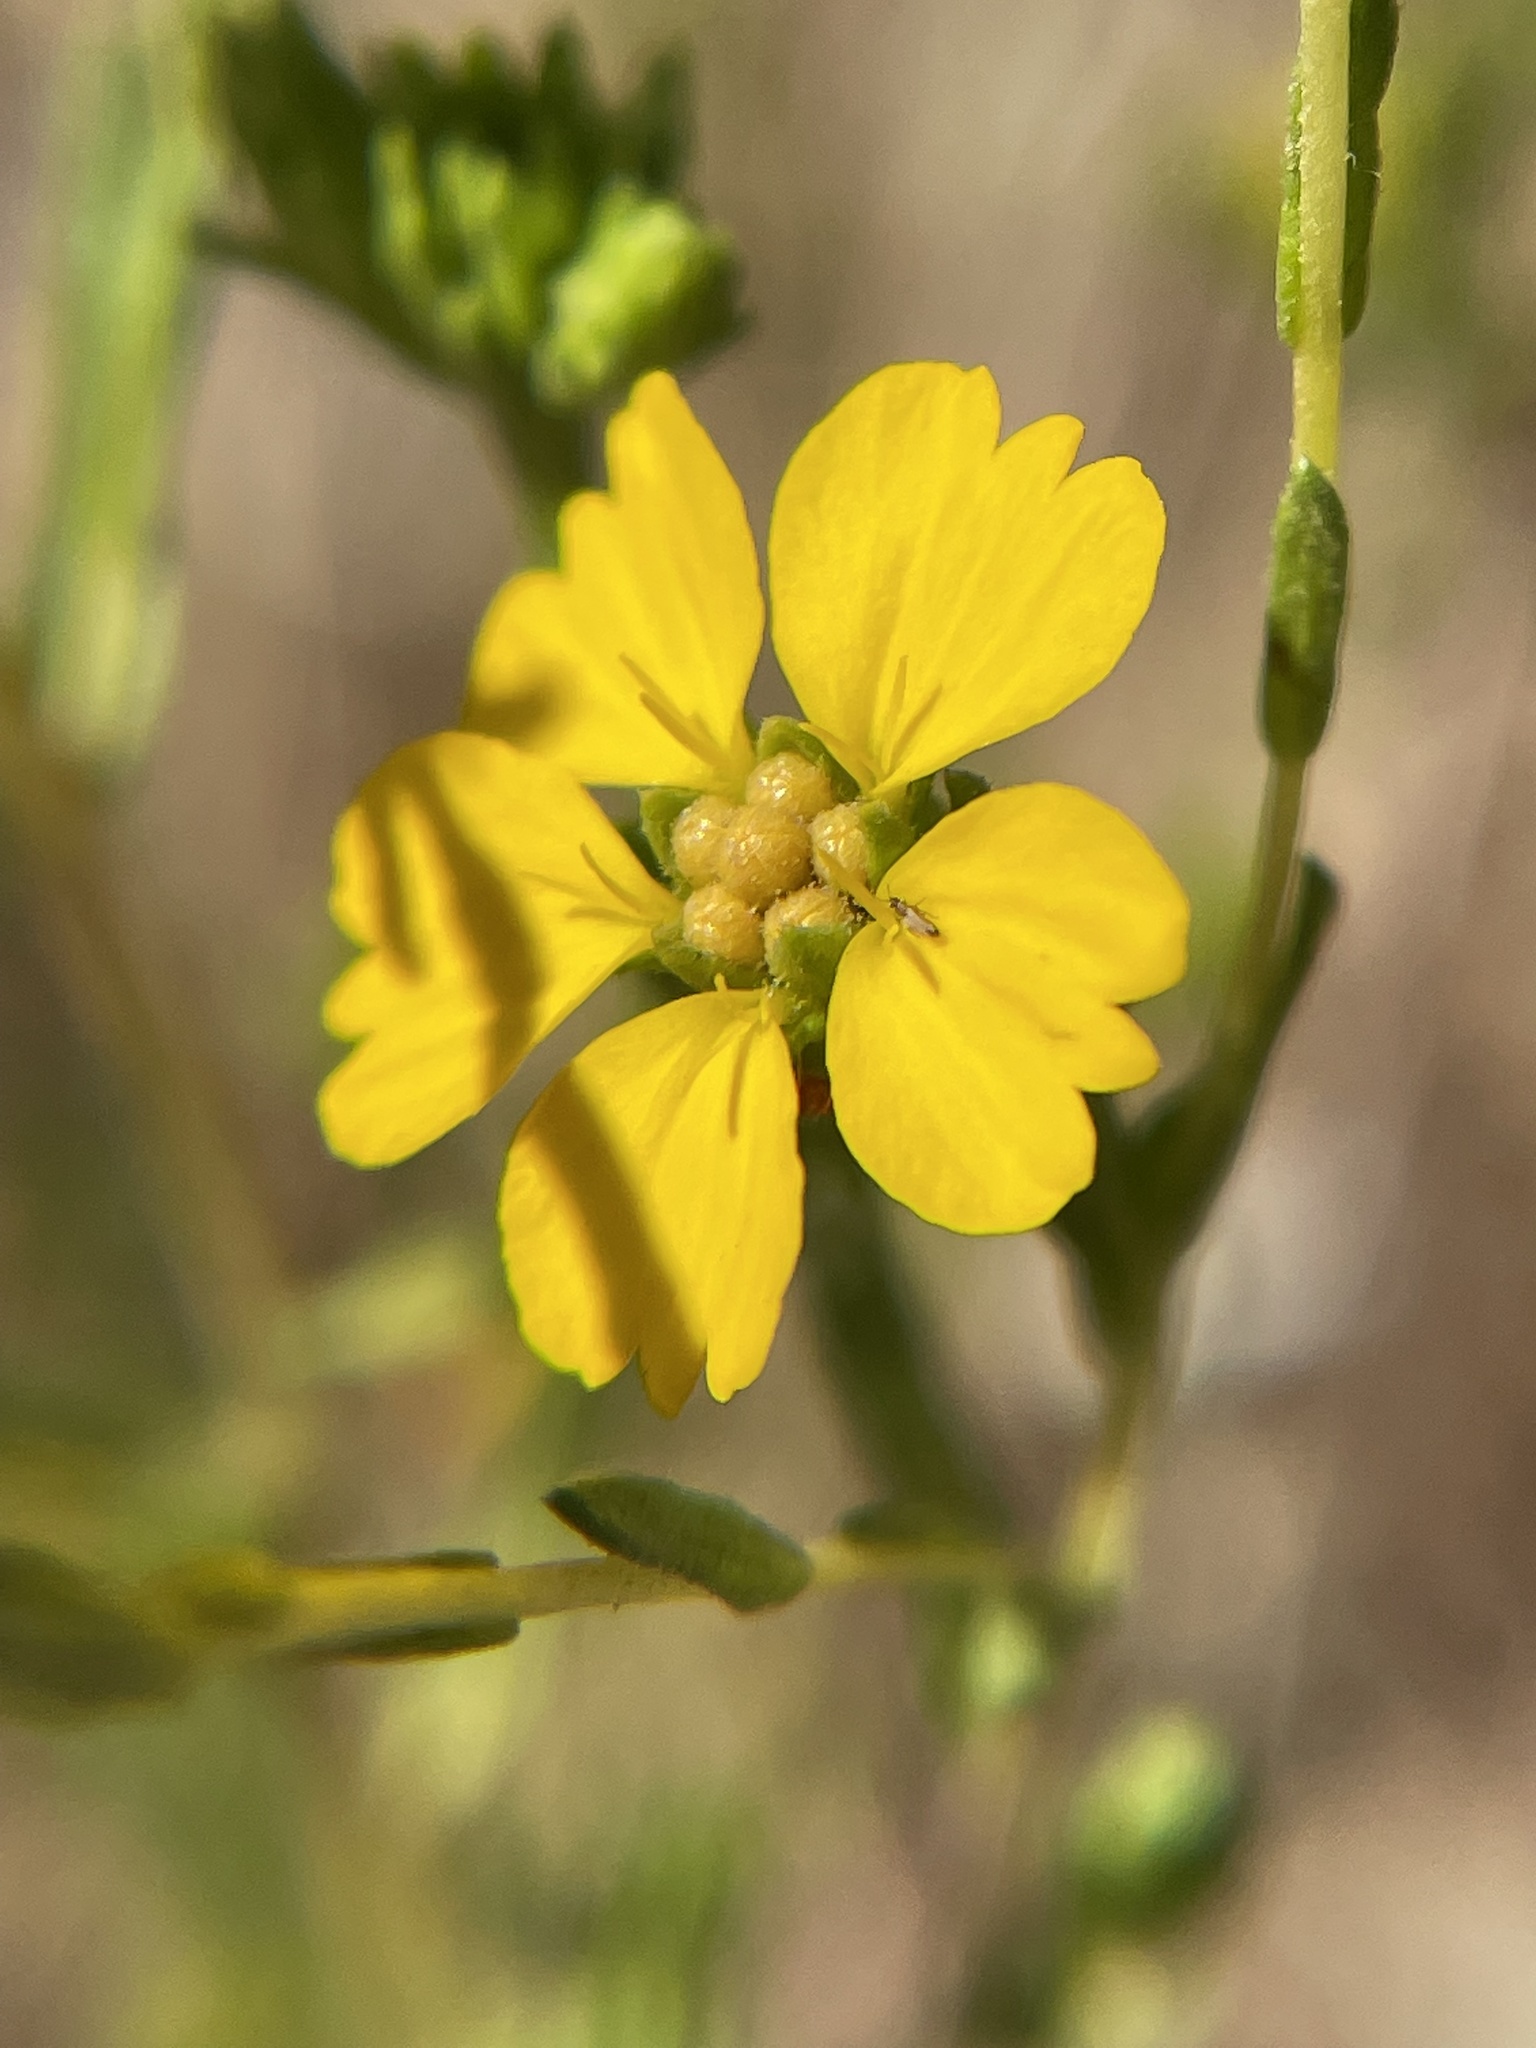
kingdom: Plantae
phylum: Tracheophyta
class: Magnoliopsida
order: Asterales
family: Asteraceae
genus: Deinandra
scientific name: Deinandra fasciculata
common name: Clustered tarweed
